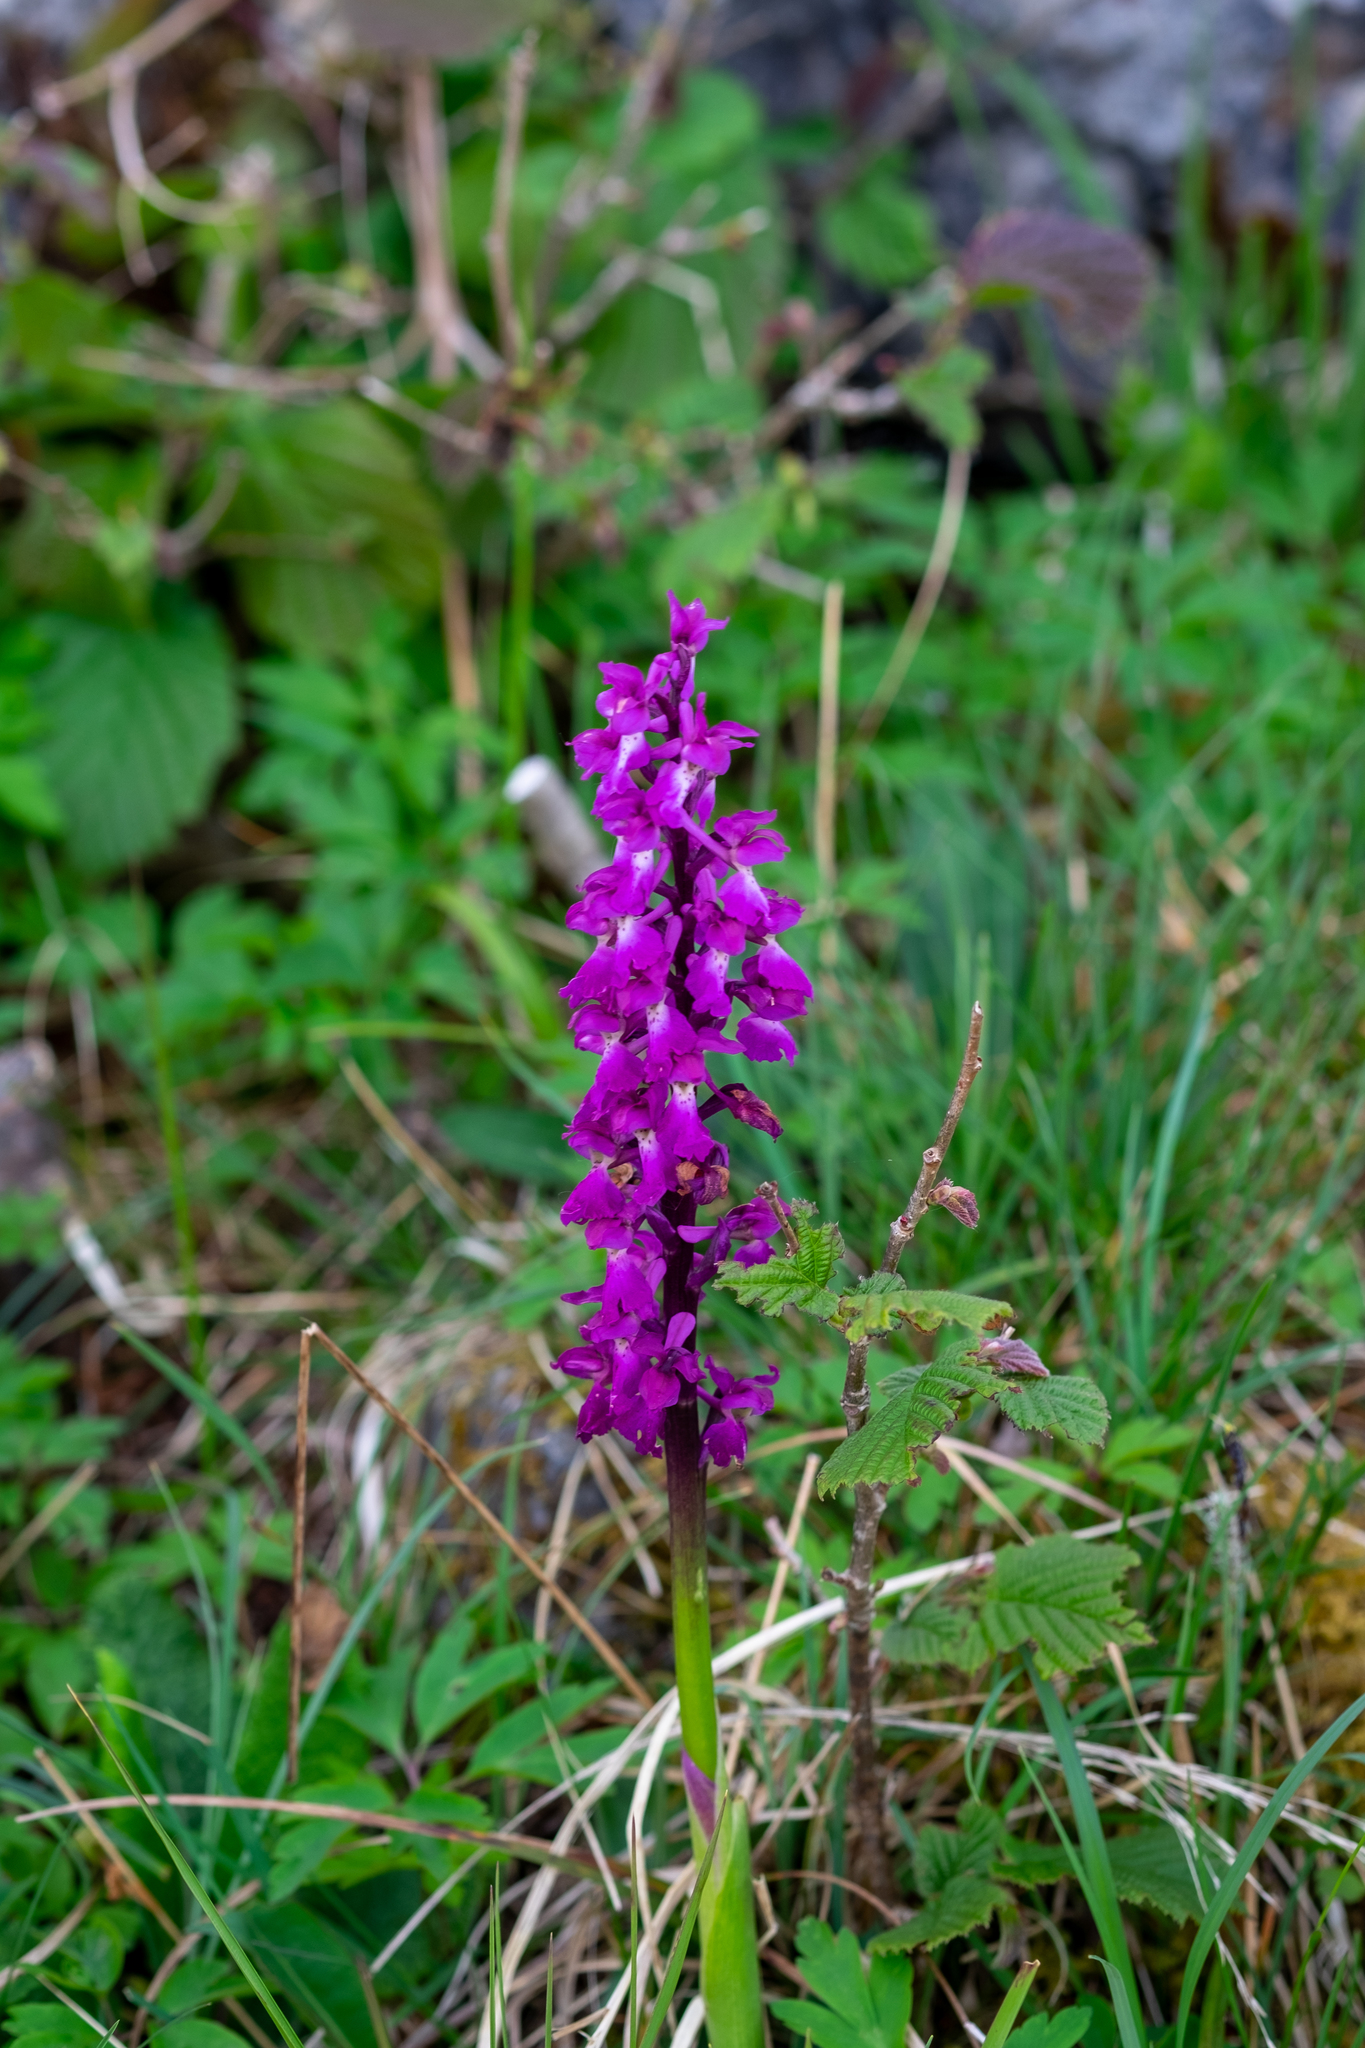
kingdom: Plantae
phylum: Tracheophyta
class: Liliopsida
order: Asparagales
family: Orchidaceae
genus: Orchis
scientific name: Orchis mascula
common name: Early-purple orchid
